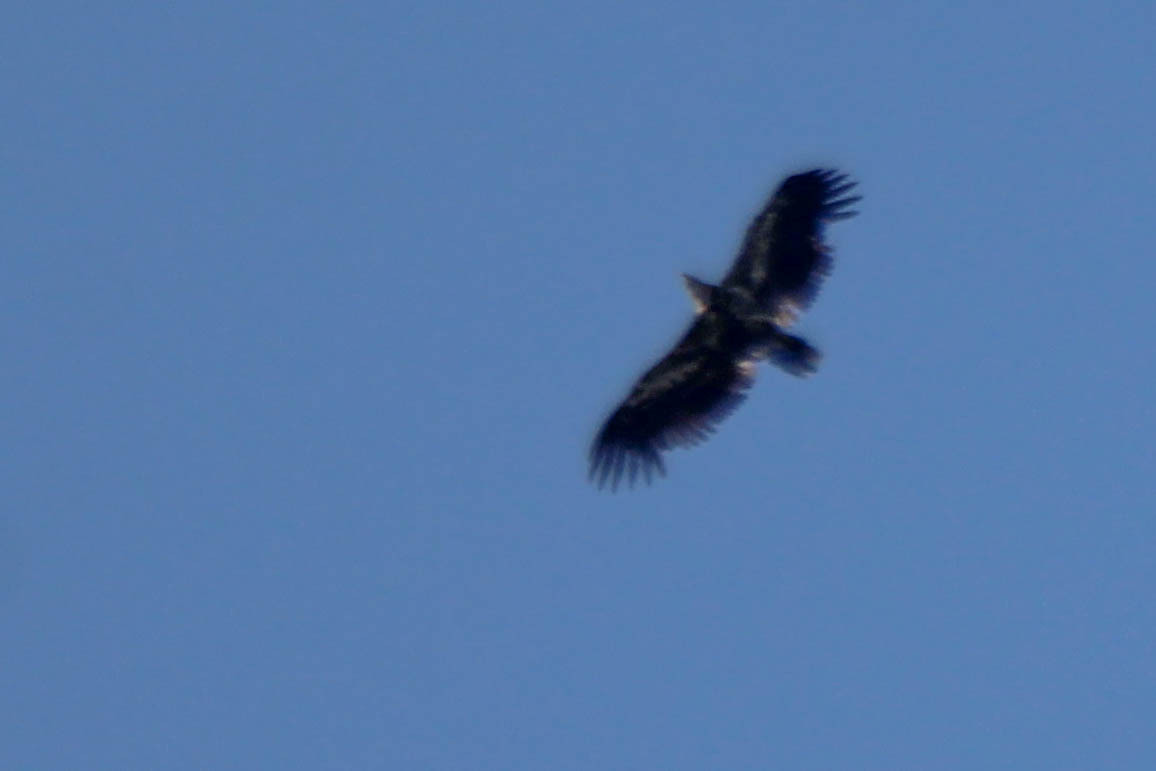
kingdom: Animalia
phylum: Chordata
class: Aves
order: Accipitriformes
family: Accipitridae
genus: Haliaeetus
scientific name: Haliaeetus albicilla
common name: White-tailed eagle
